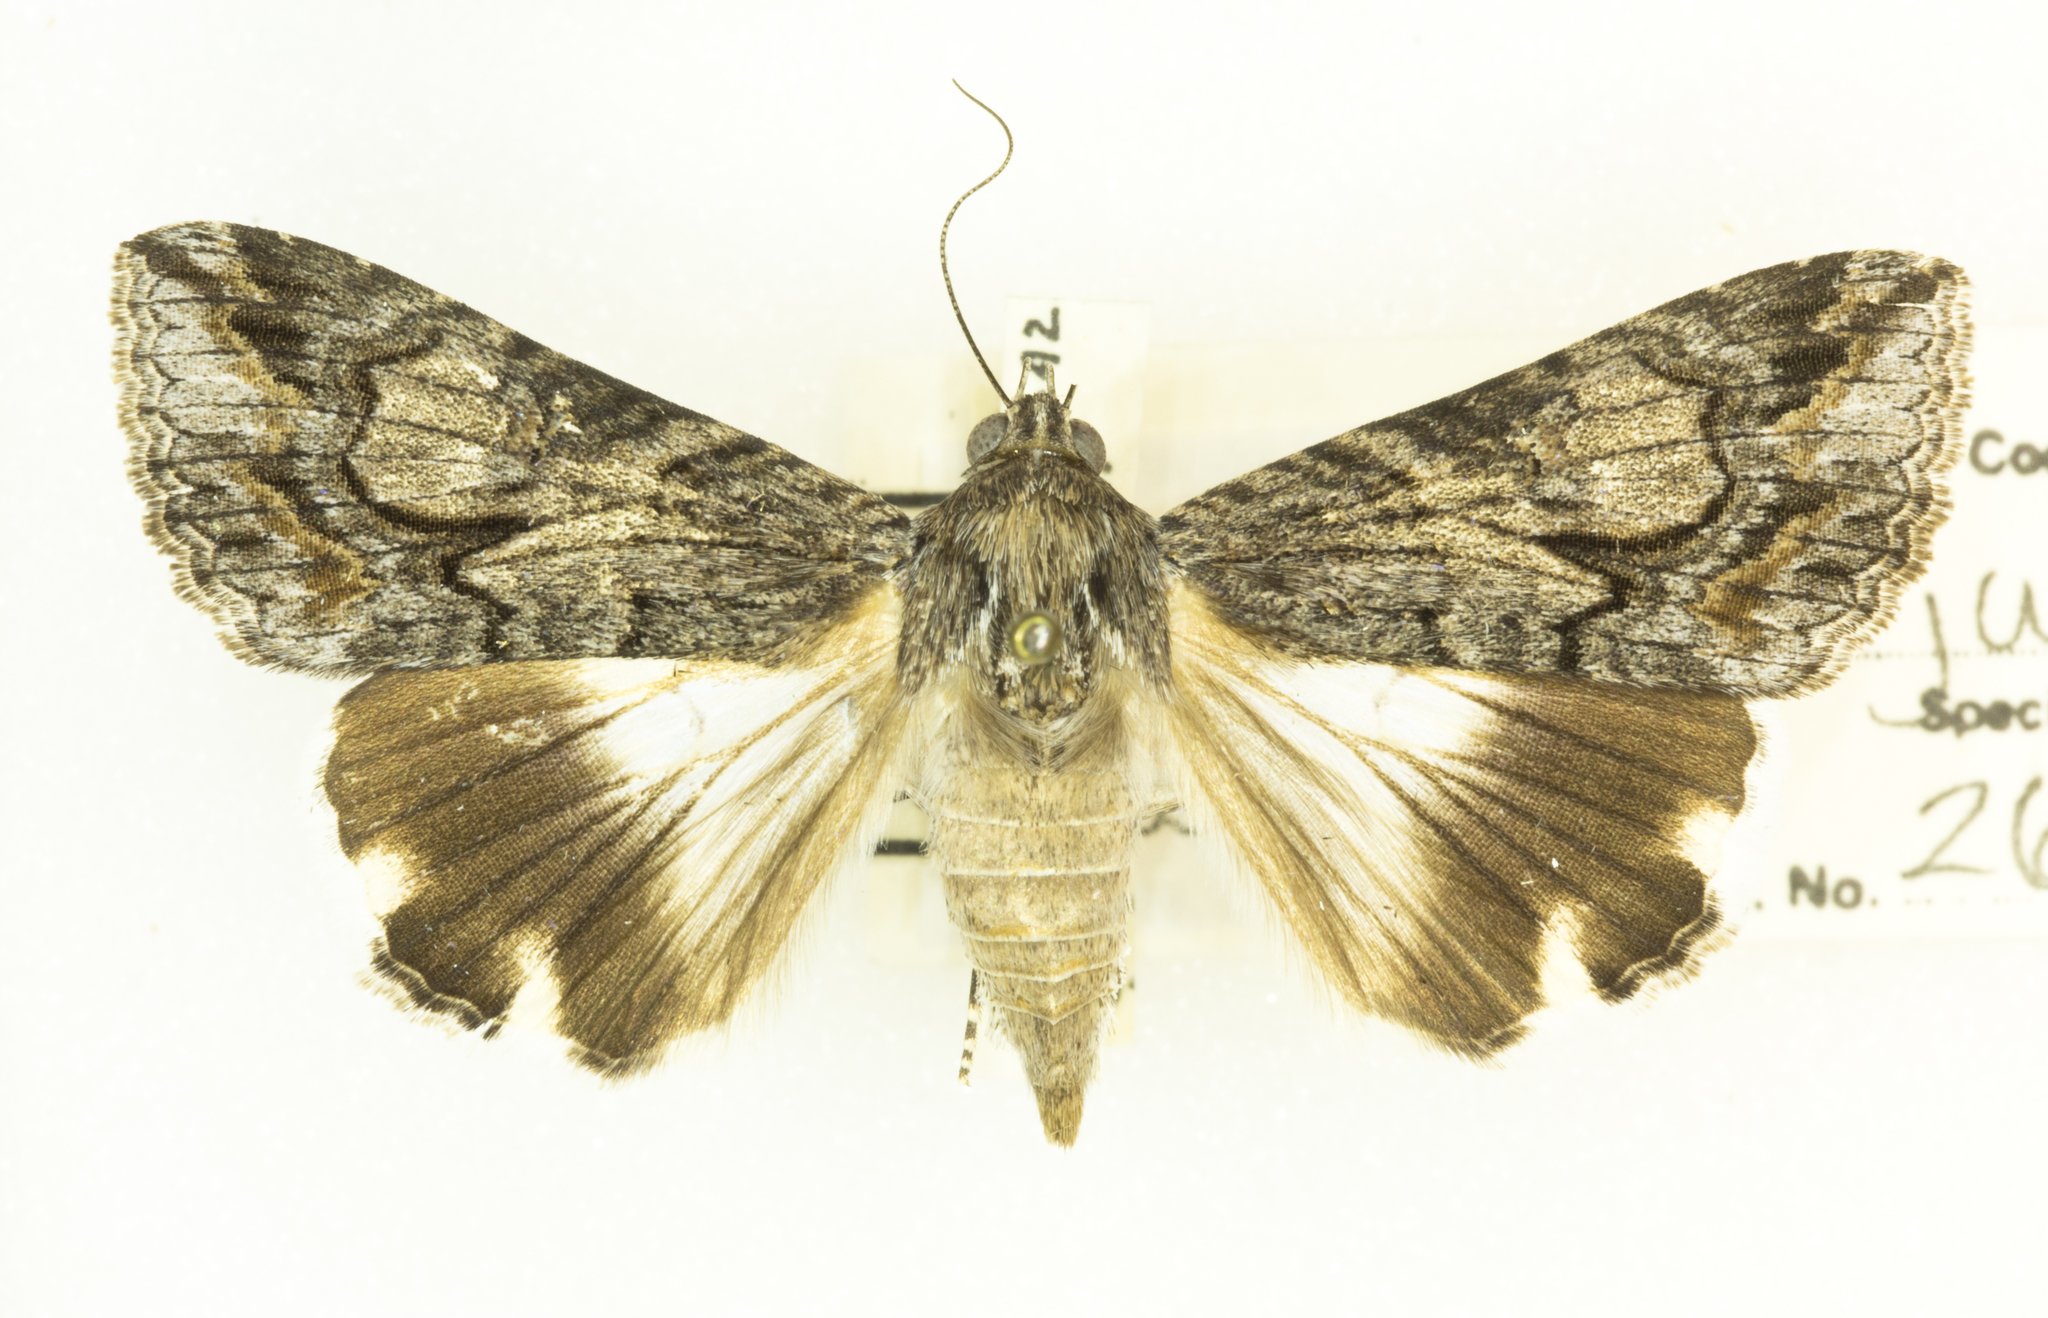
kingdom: Animalia
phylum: Arthropoda
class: Insecta
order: Lepidoptera
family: Erebidae
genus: Melipotis
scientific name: Melipotis jucunda
